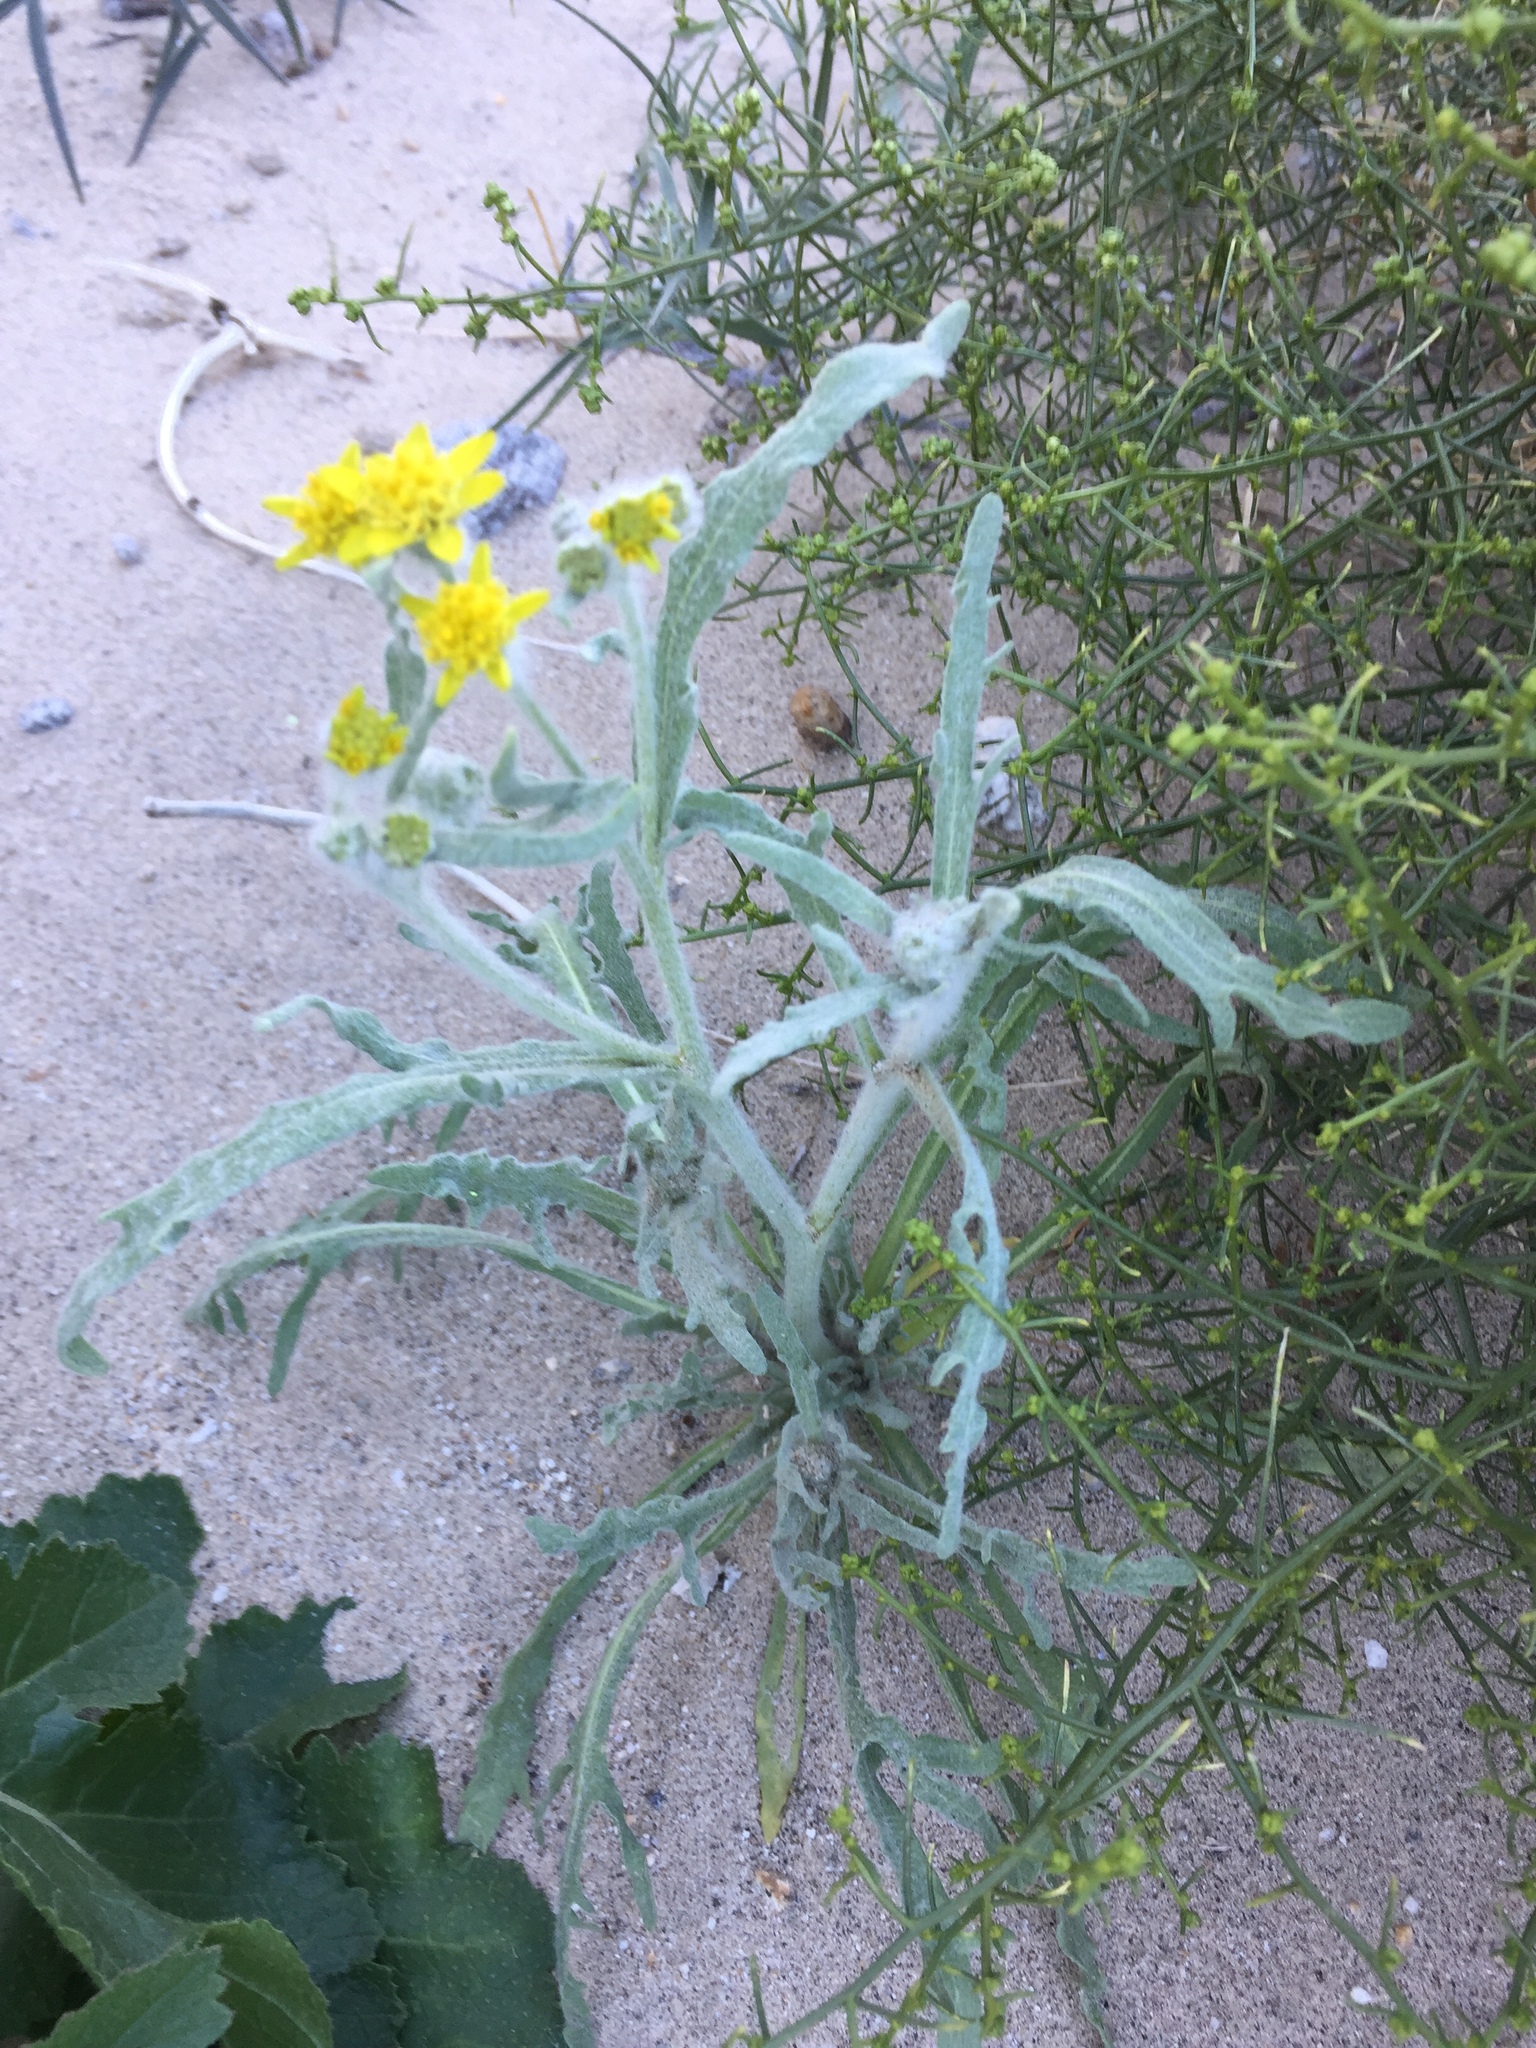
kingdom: Plantae
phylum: Tracheophyta
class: Magnoliopsida
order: Asterales
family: Asteraceae
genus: Baileya
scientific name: Baileya pauciradiata
